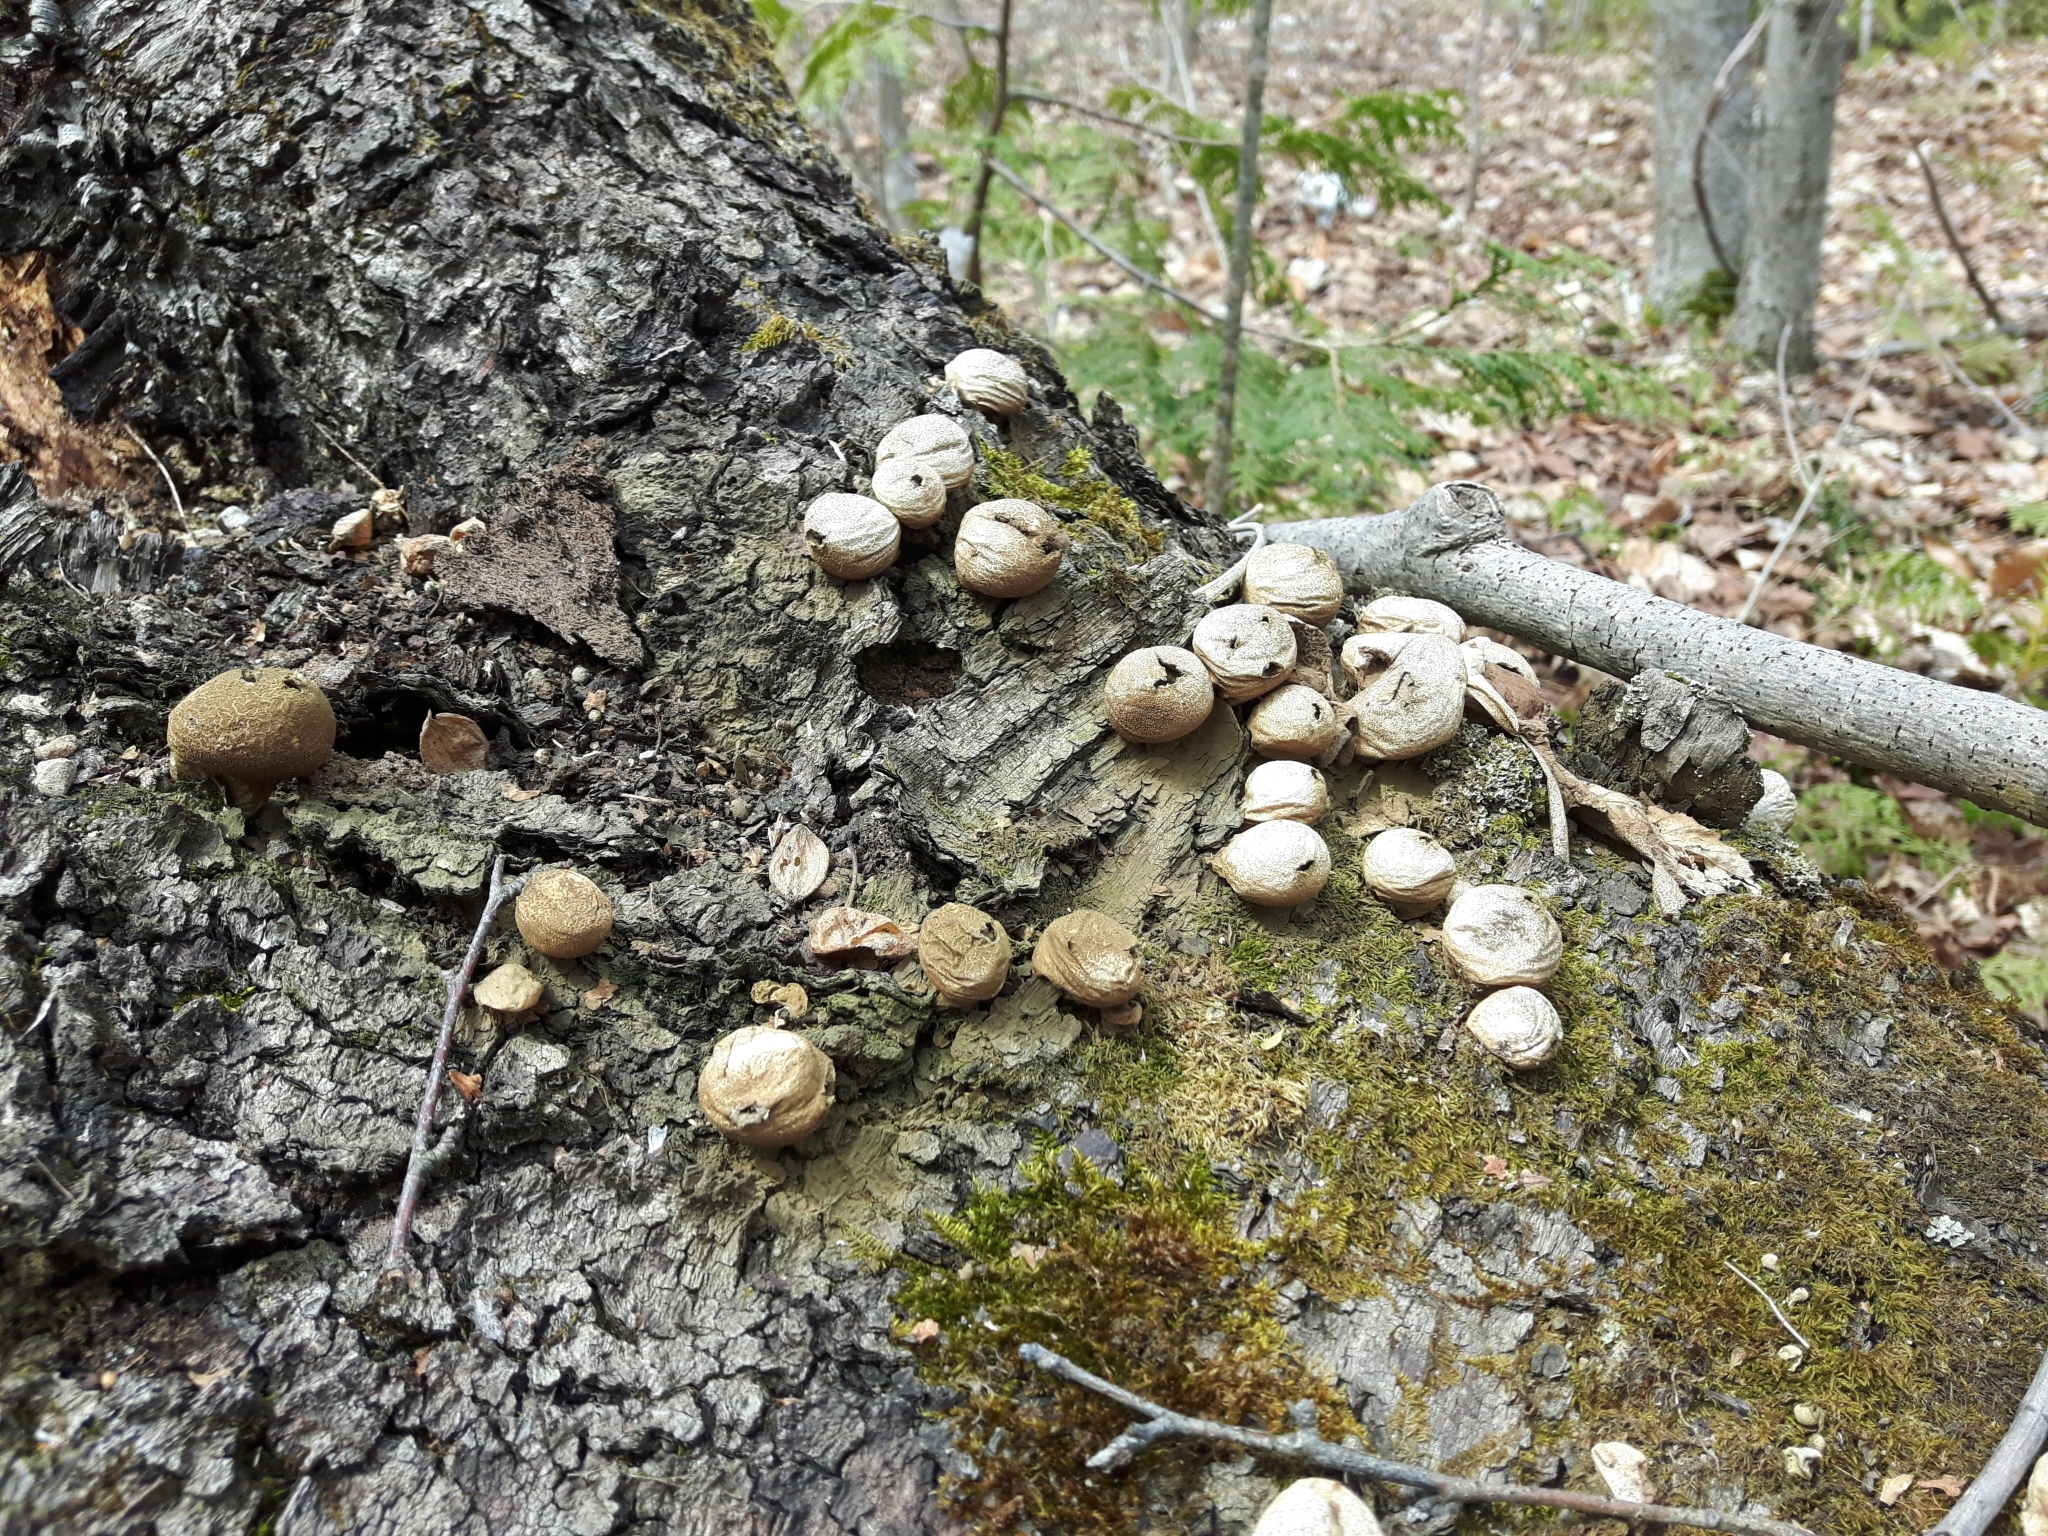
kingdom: Fungi
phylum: Basidiomycota
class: Agaricomycetes
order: Agaricales
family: Lycoperdaceae
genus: Apioperdon
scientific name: Apioperdon pyriforme
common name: Pear-shaped puffball
